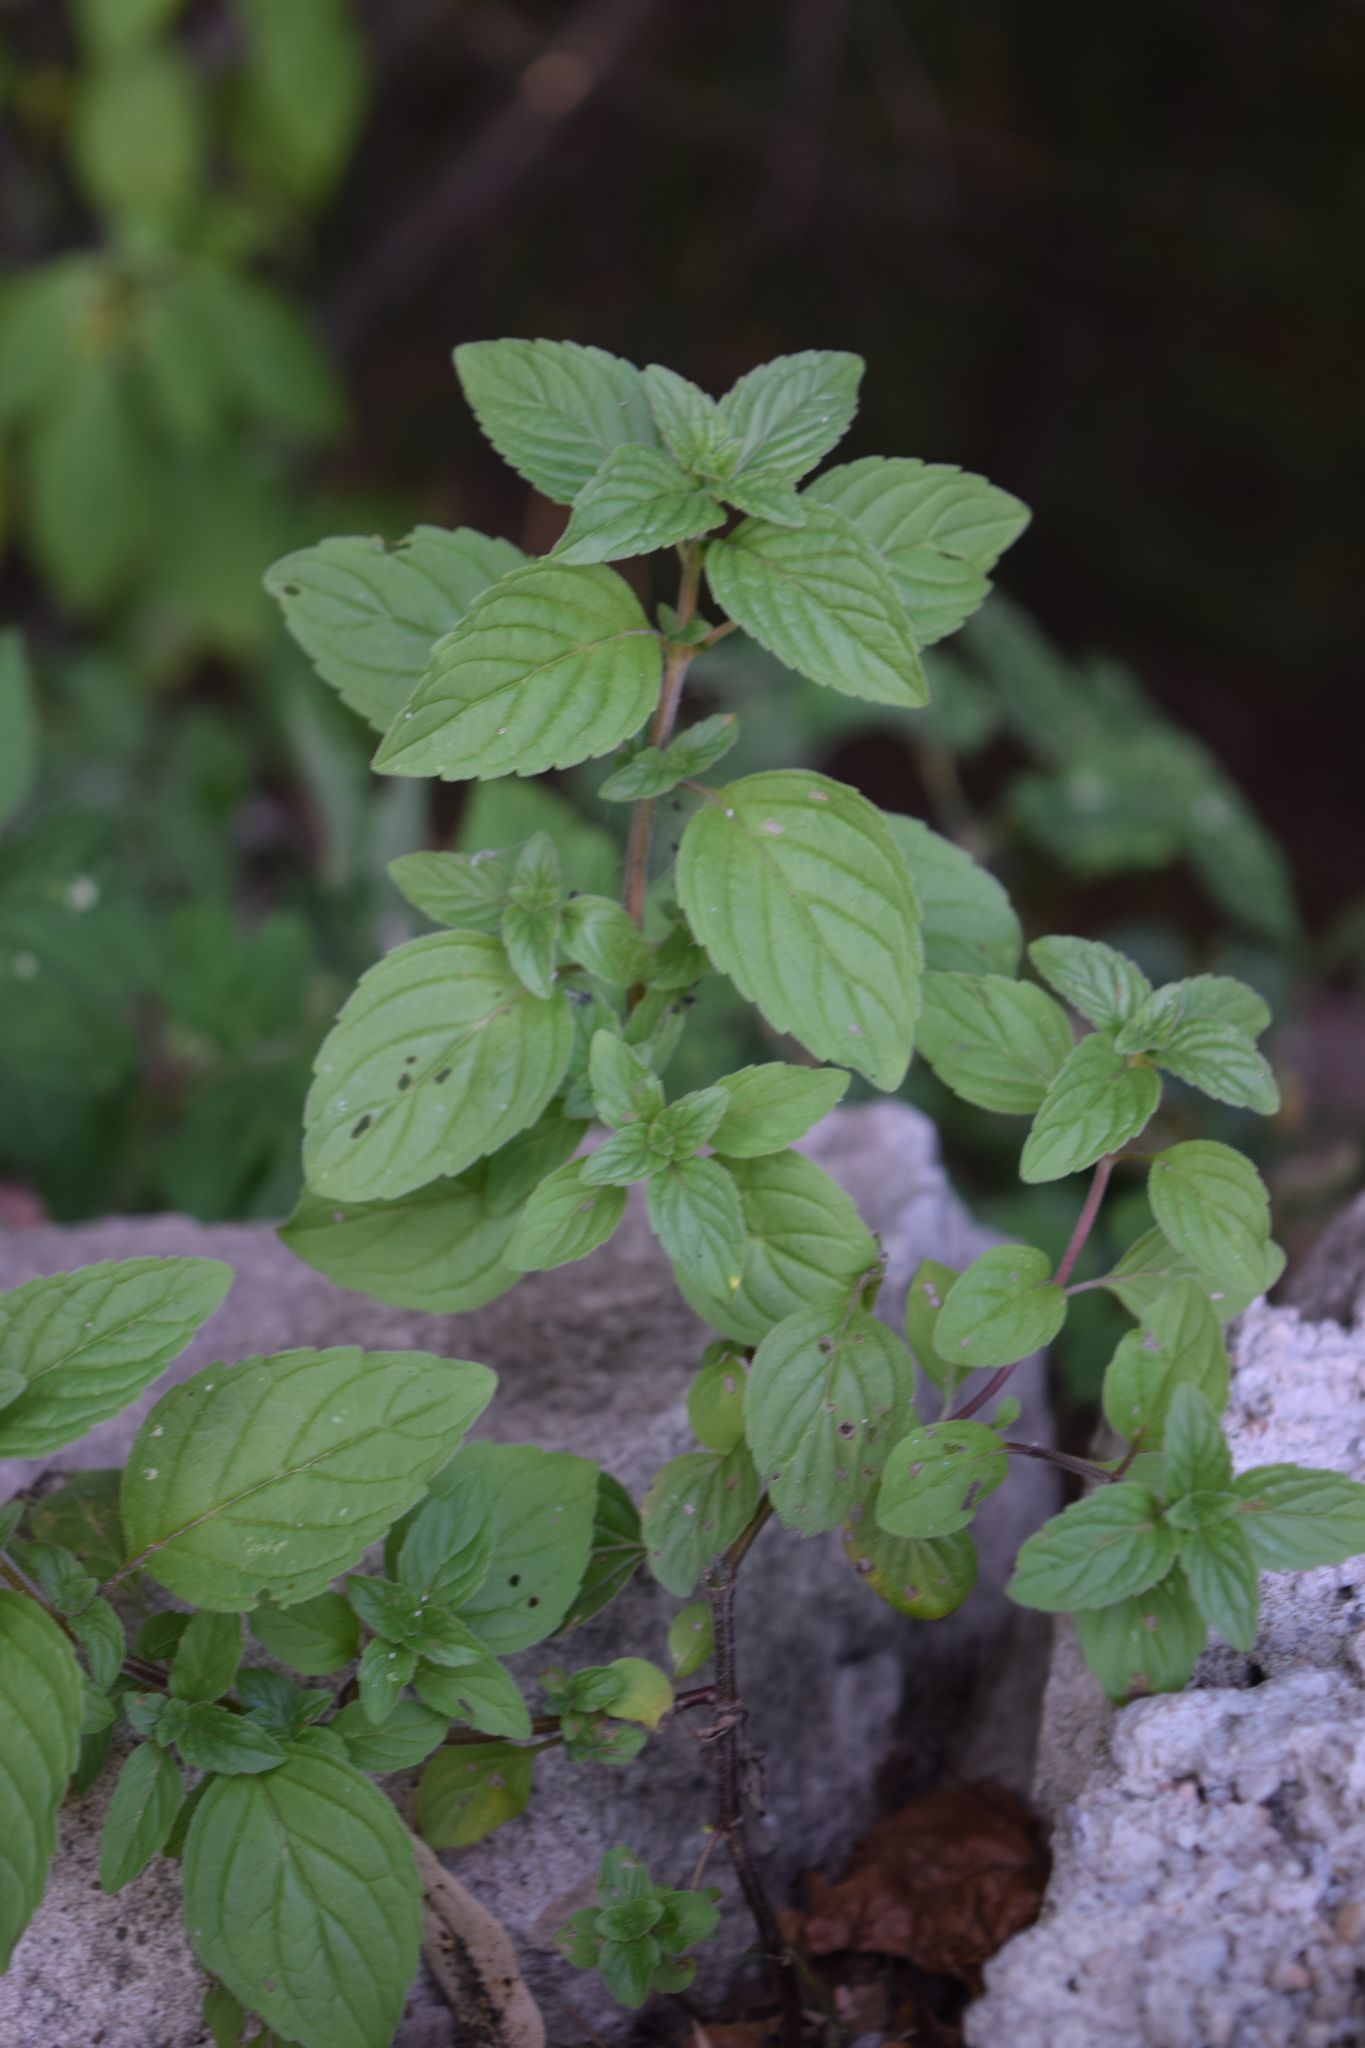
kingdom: Plantae
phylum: Tracheophyta
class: Magnoliopsida
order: Lamiales
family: Lamiaceae
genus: Mentha
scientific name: Mentha arvensis
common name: Corn mint
